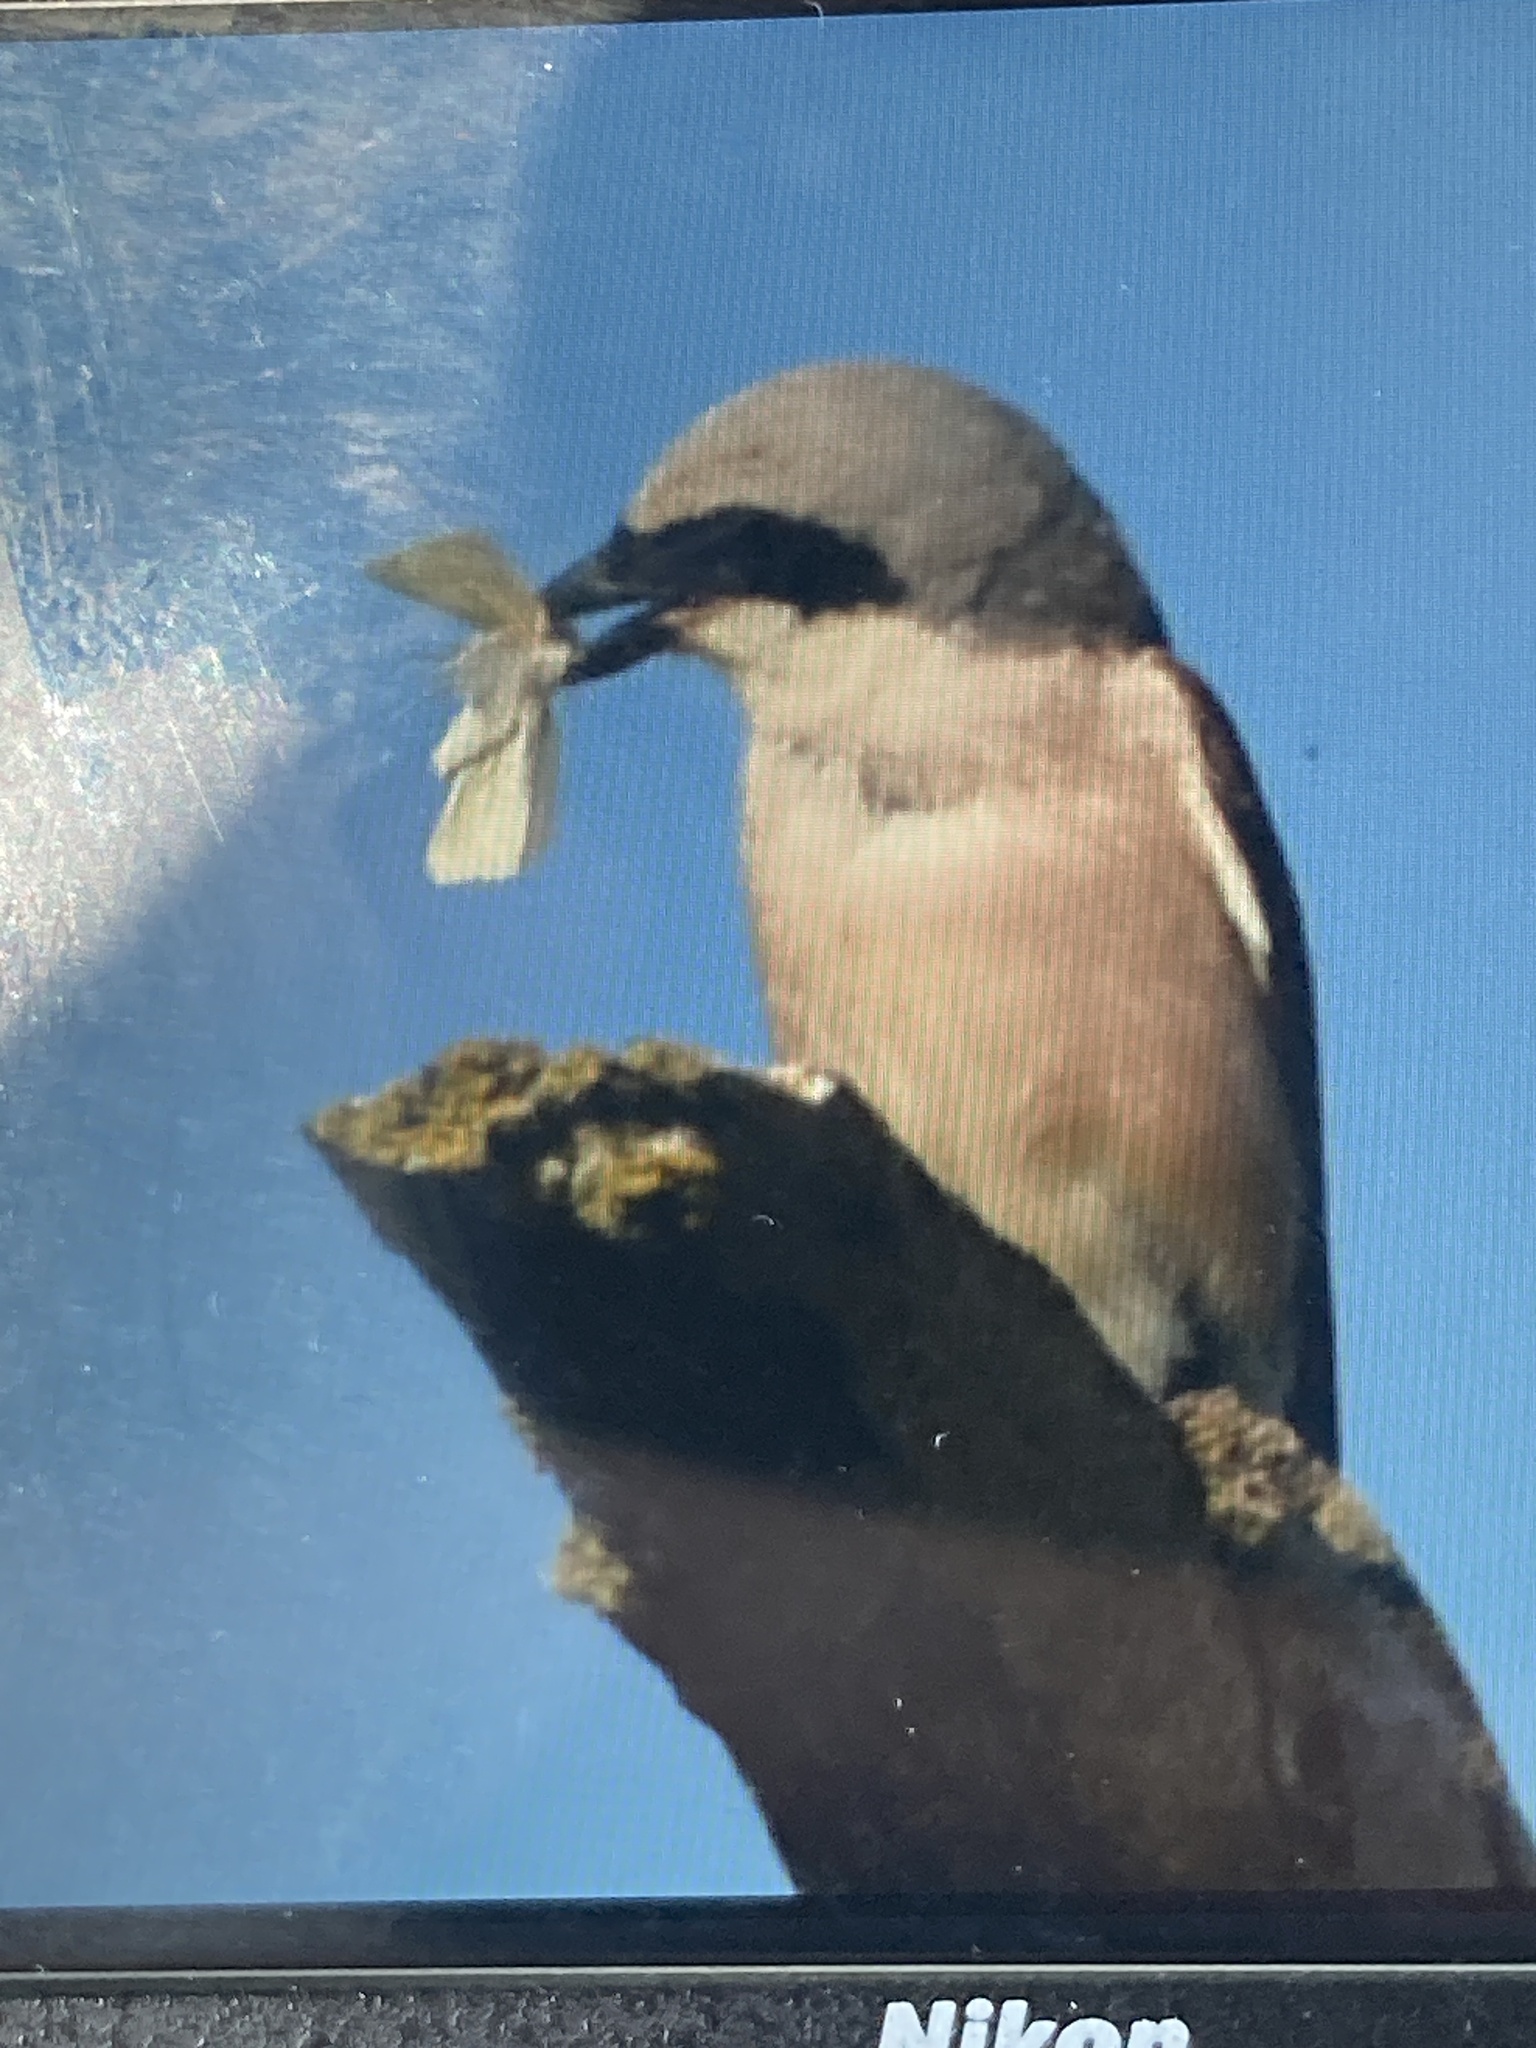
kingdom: Animalia
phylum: Chordata
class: Aves
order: Passeriformes
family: Laniidae
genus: Lanius
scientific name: Lanius collurio
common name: Red-backed shrike
